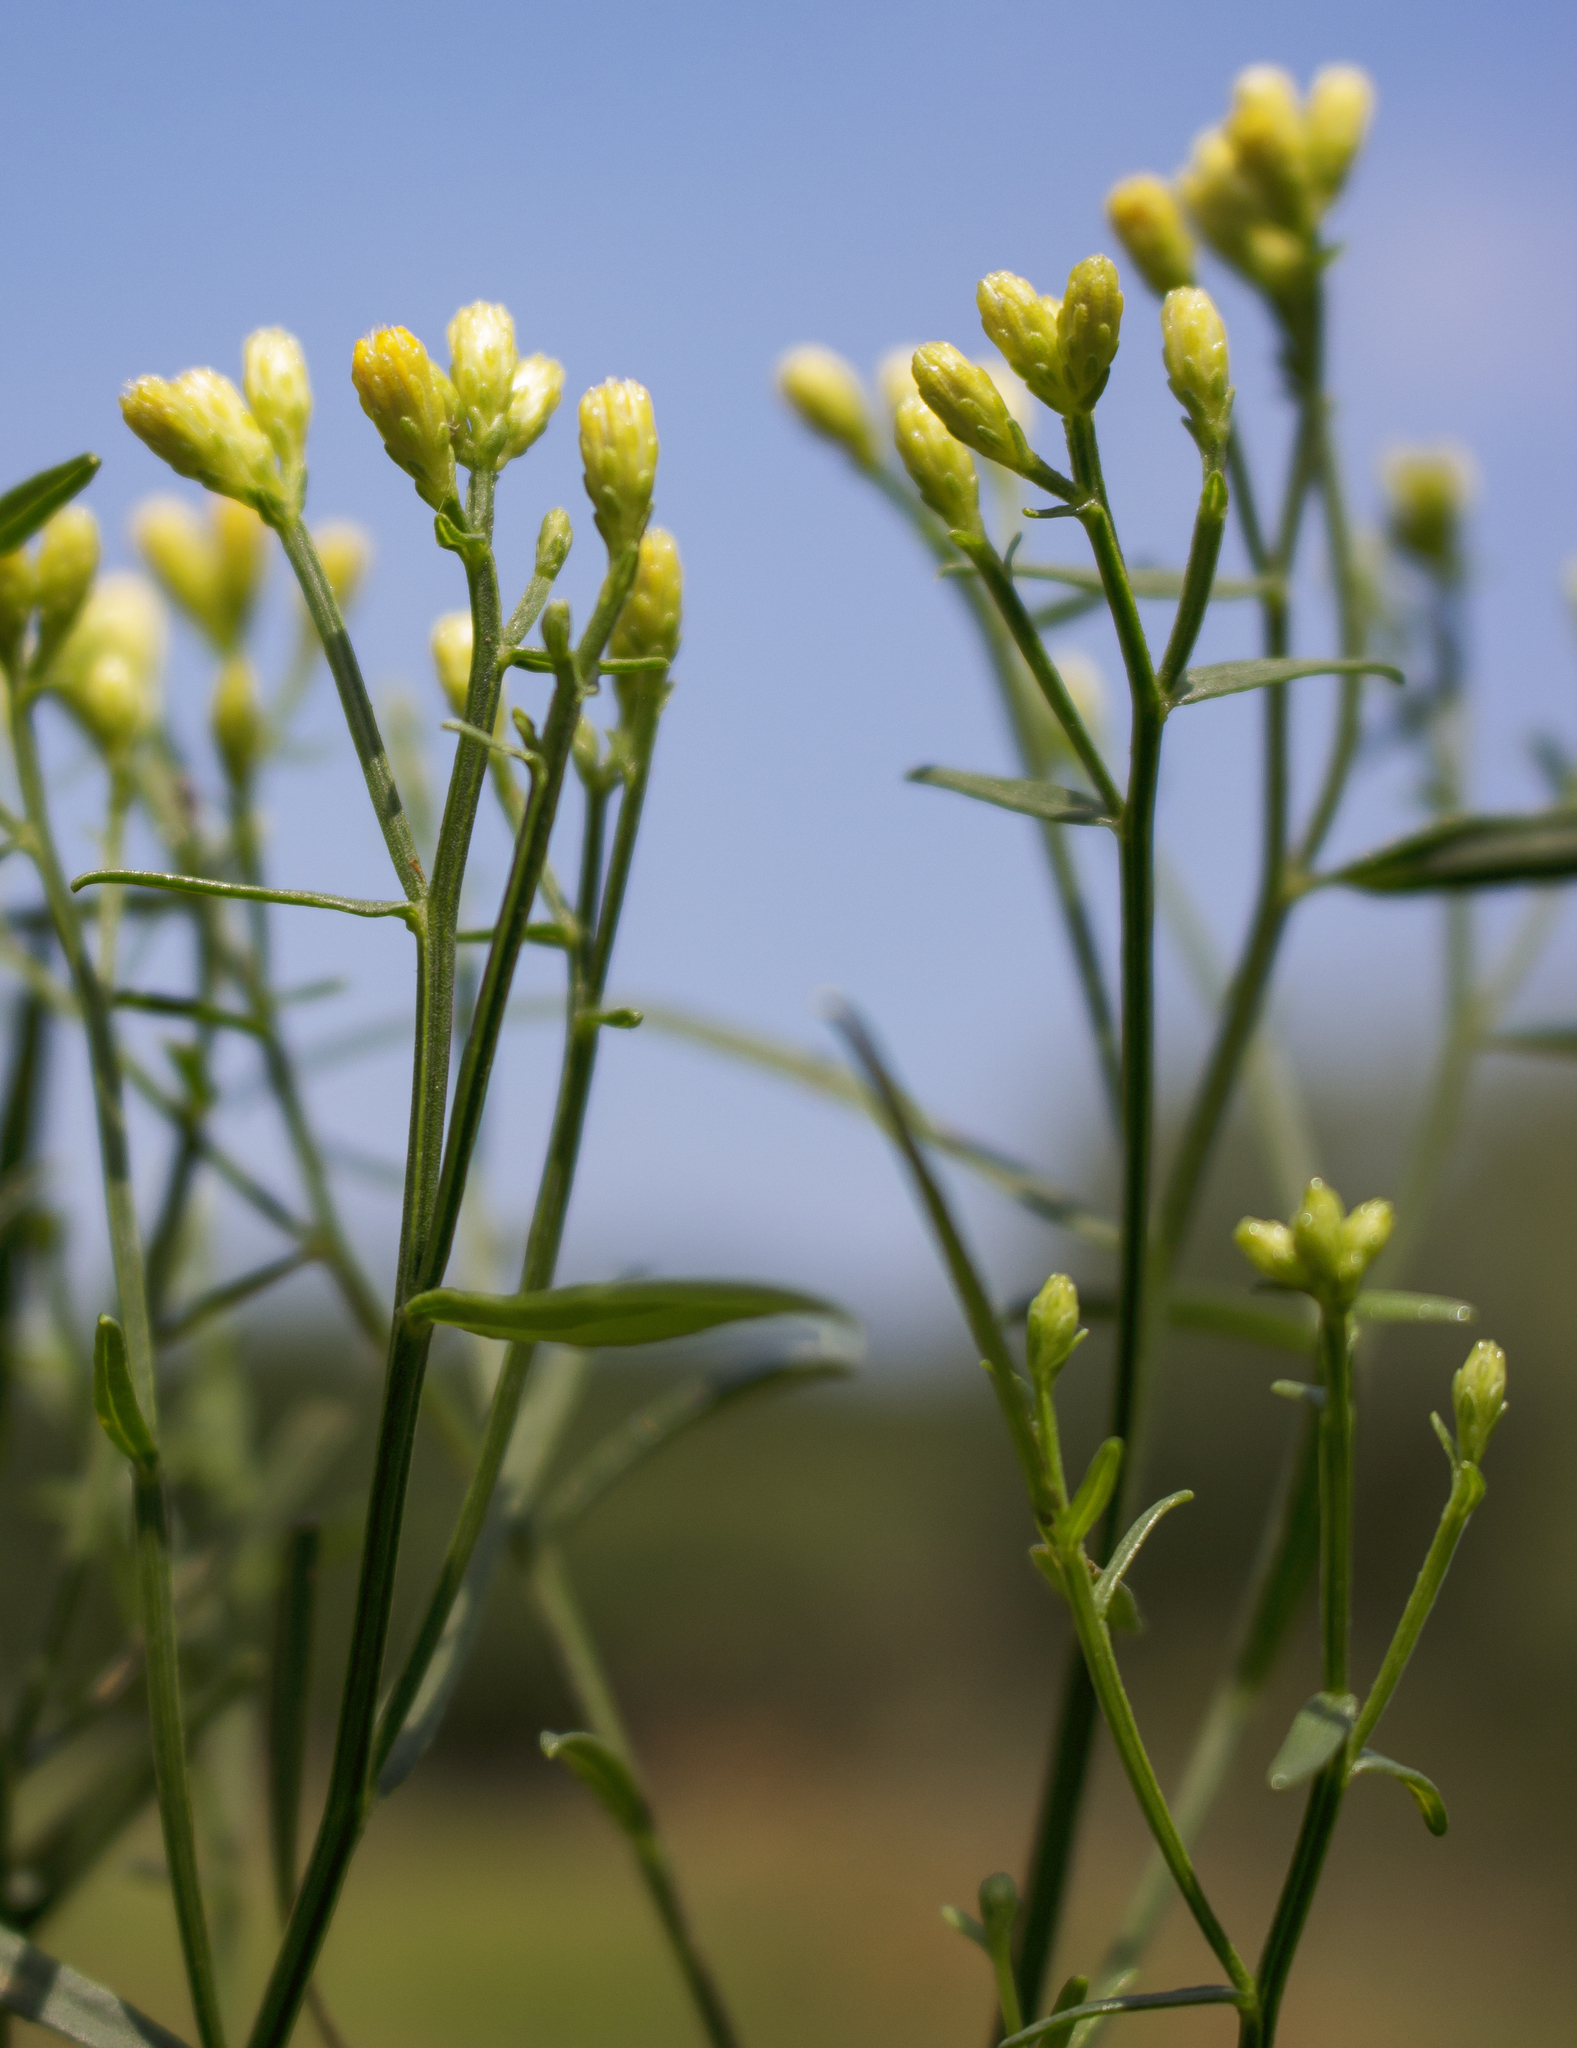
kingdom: Plantae
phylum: Tracheophyta
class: Magnoliopsida
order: Asterales
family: Asteraceae
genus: Euthamia
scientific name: Euthamia graminifolia
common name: Common goldentop
